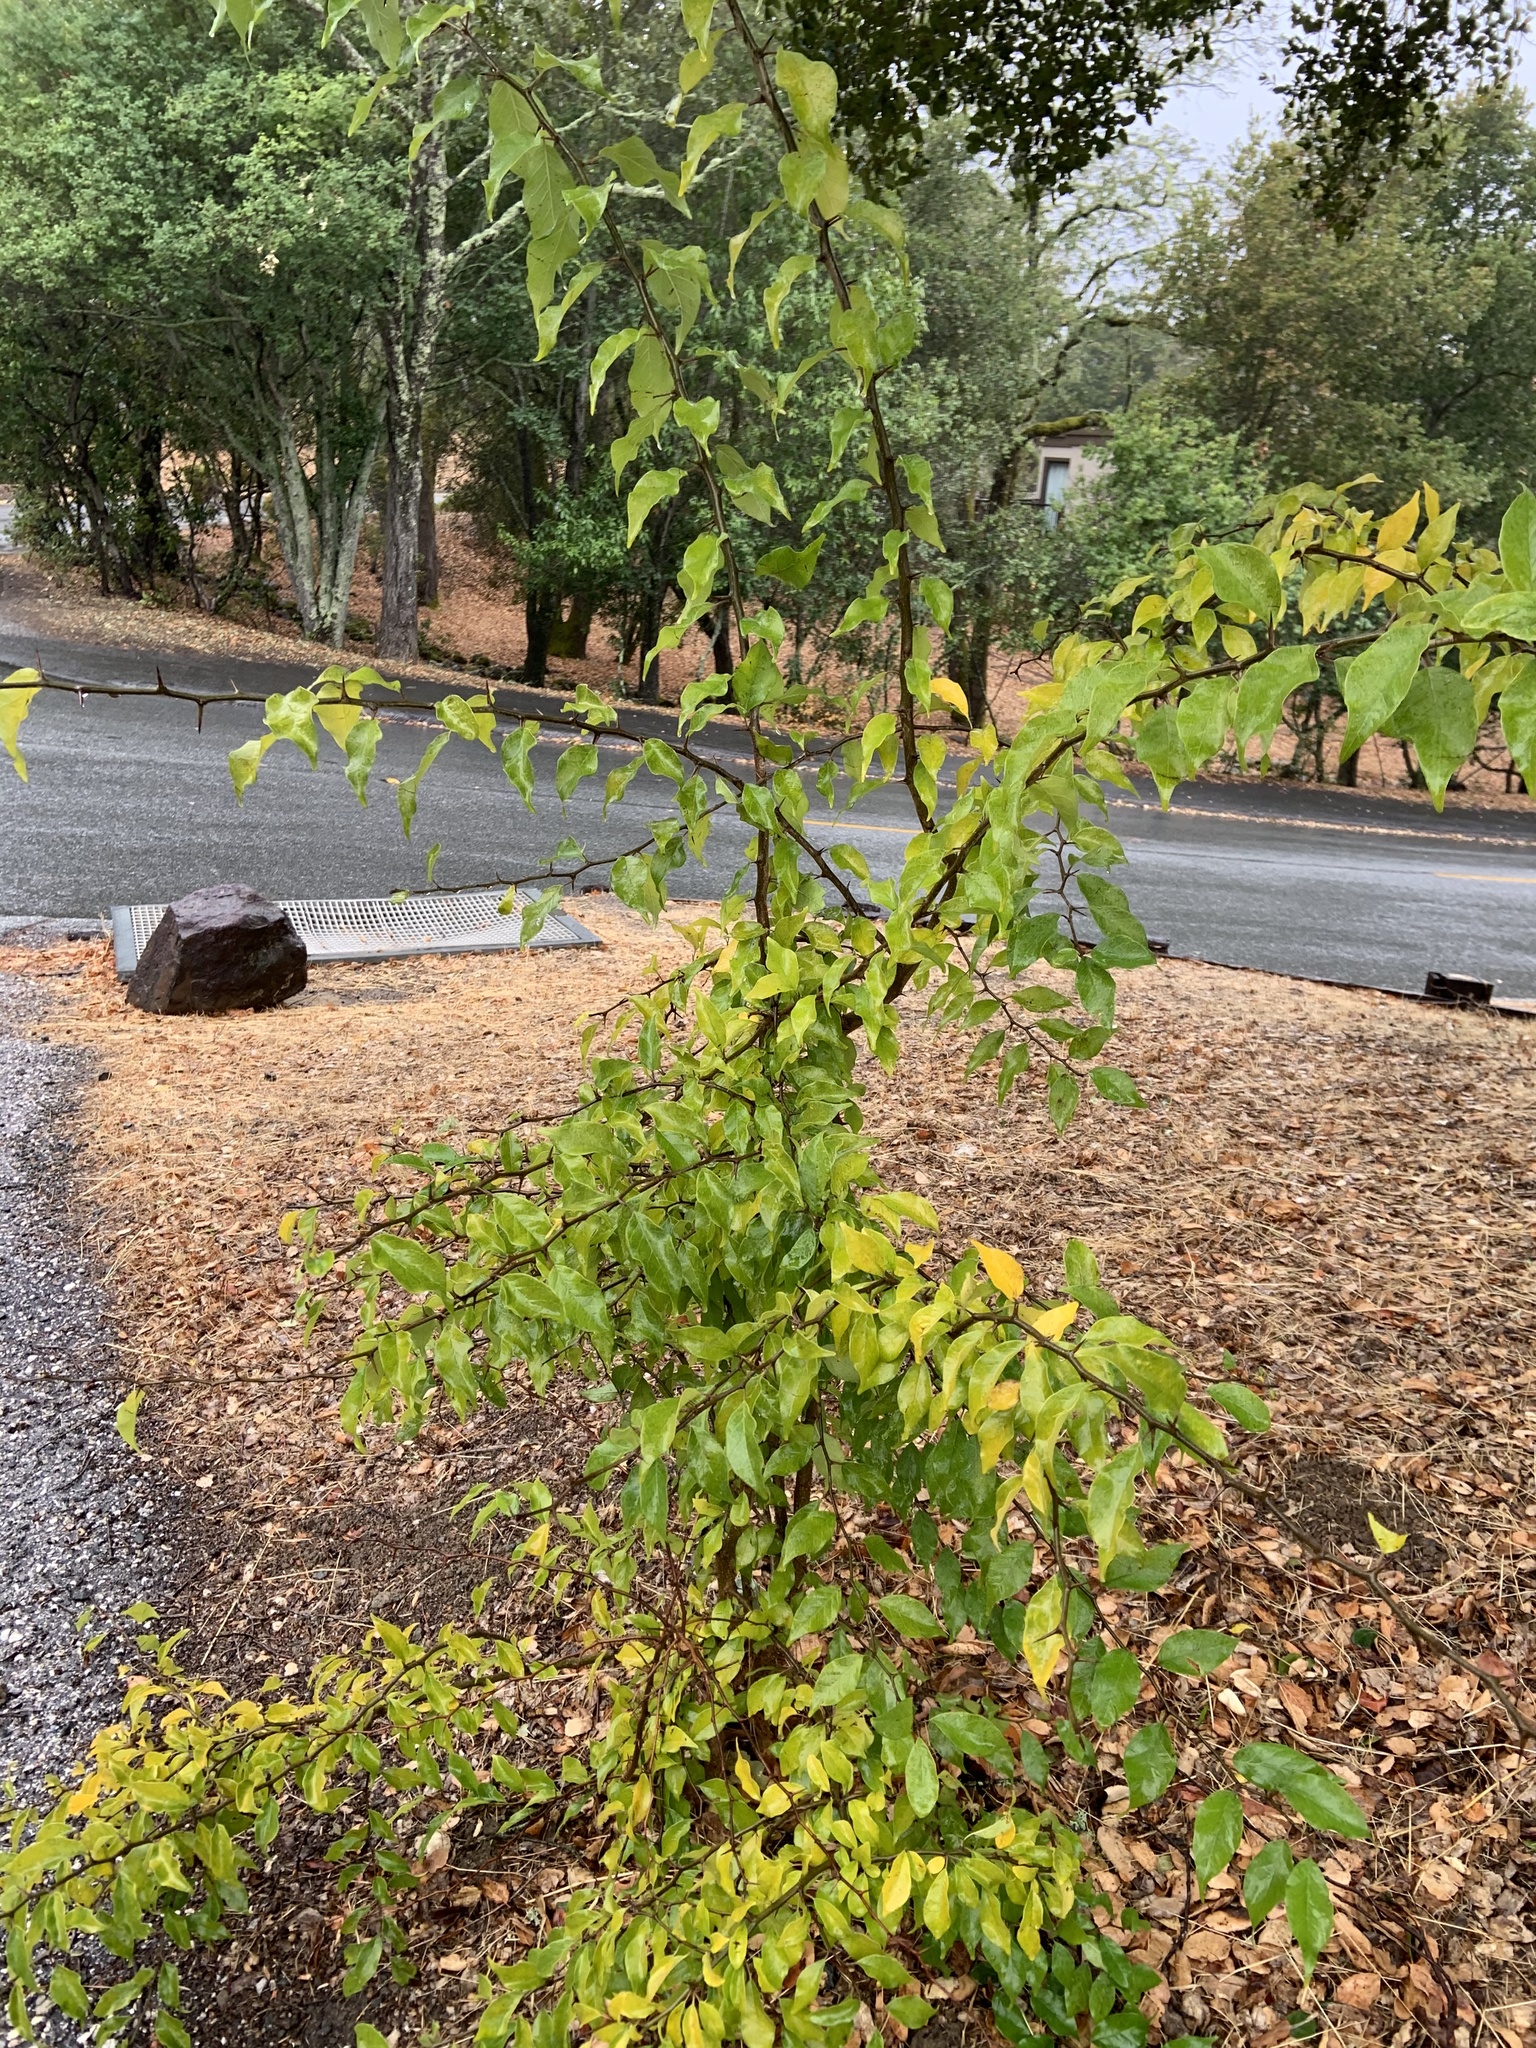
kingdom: Plantae
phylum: Tracheophyta
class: Magnoliopsida
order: Rosales
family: Moraceae
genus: Maclura
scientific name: Maclura pomifera
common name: Osage-orange
